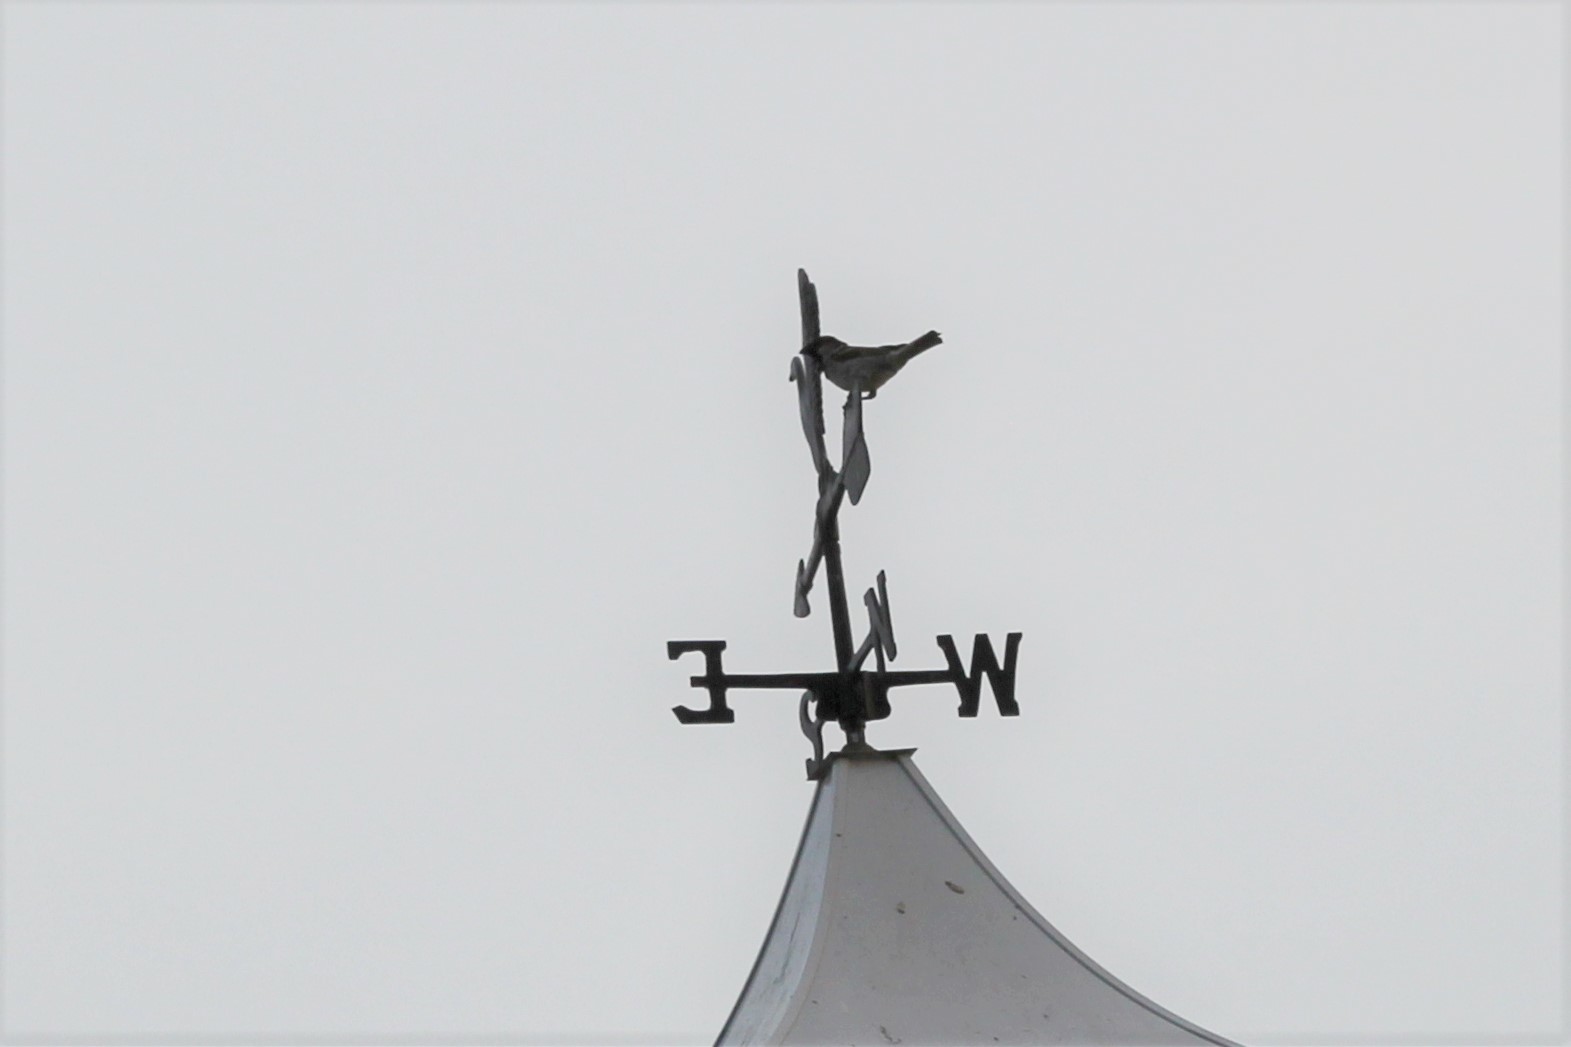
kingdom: Animalia
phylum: Chordata
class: Aves
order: Passeriformes
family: Passeridae
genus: Passer
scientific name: Passer domesticus
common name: House sparrow
